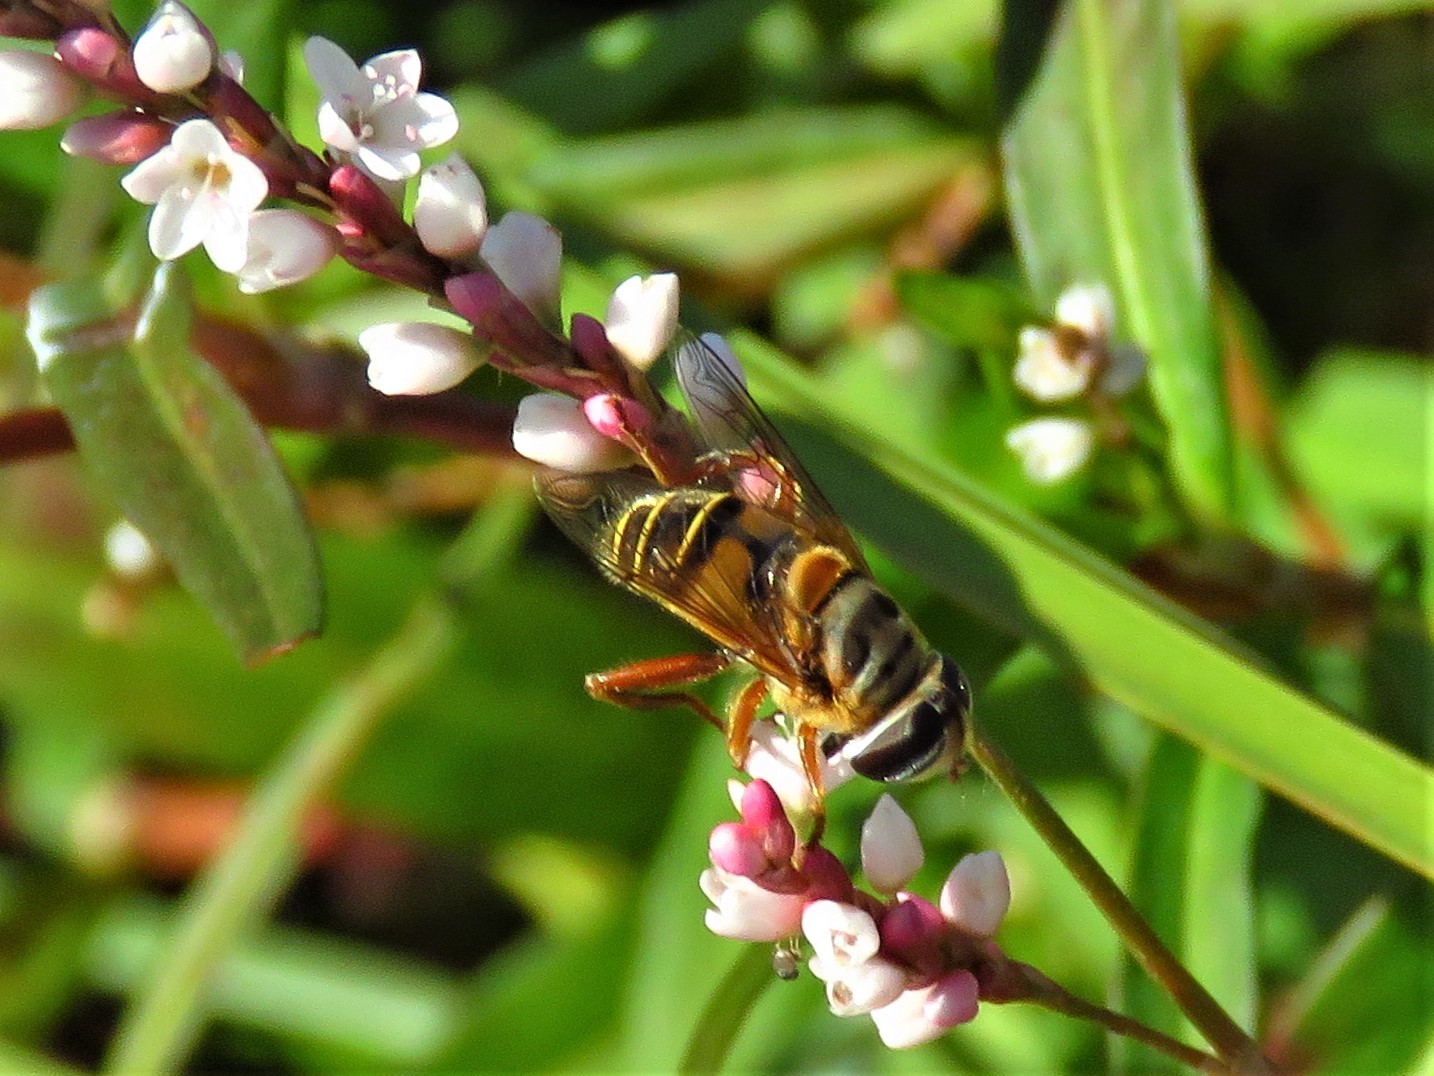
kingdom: Animalia
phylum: Arthropoda
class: Insecta
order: Diptera
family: Syrphidae
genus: Palpada
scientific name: Palpada vinetorum
